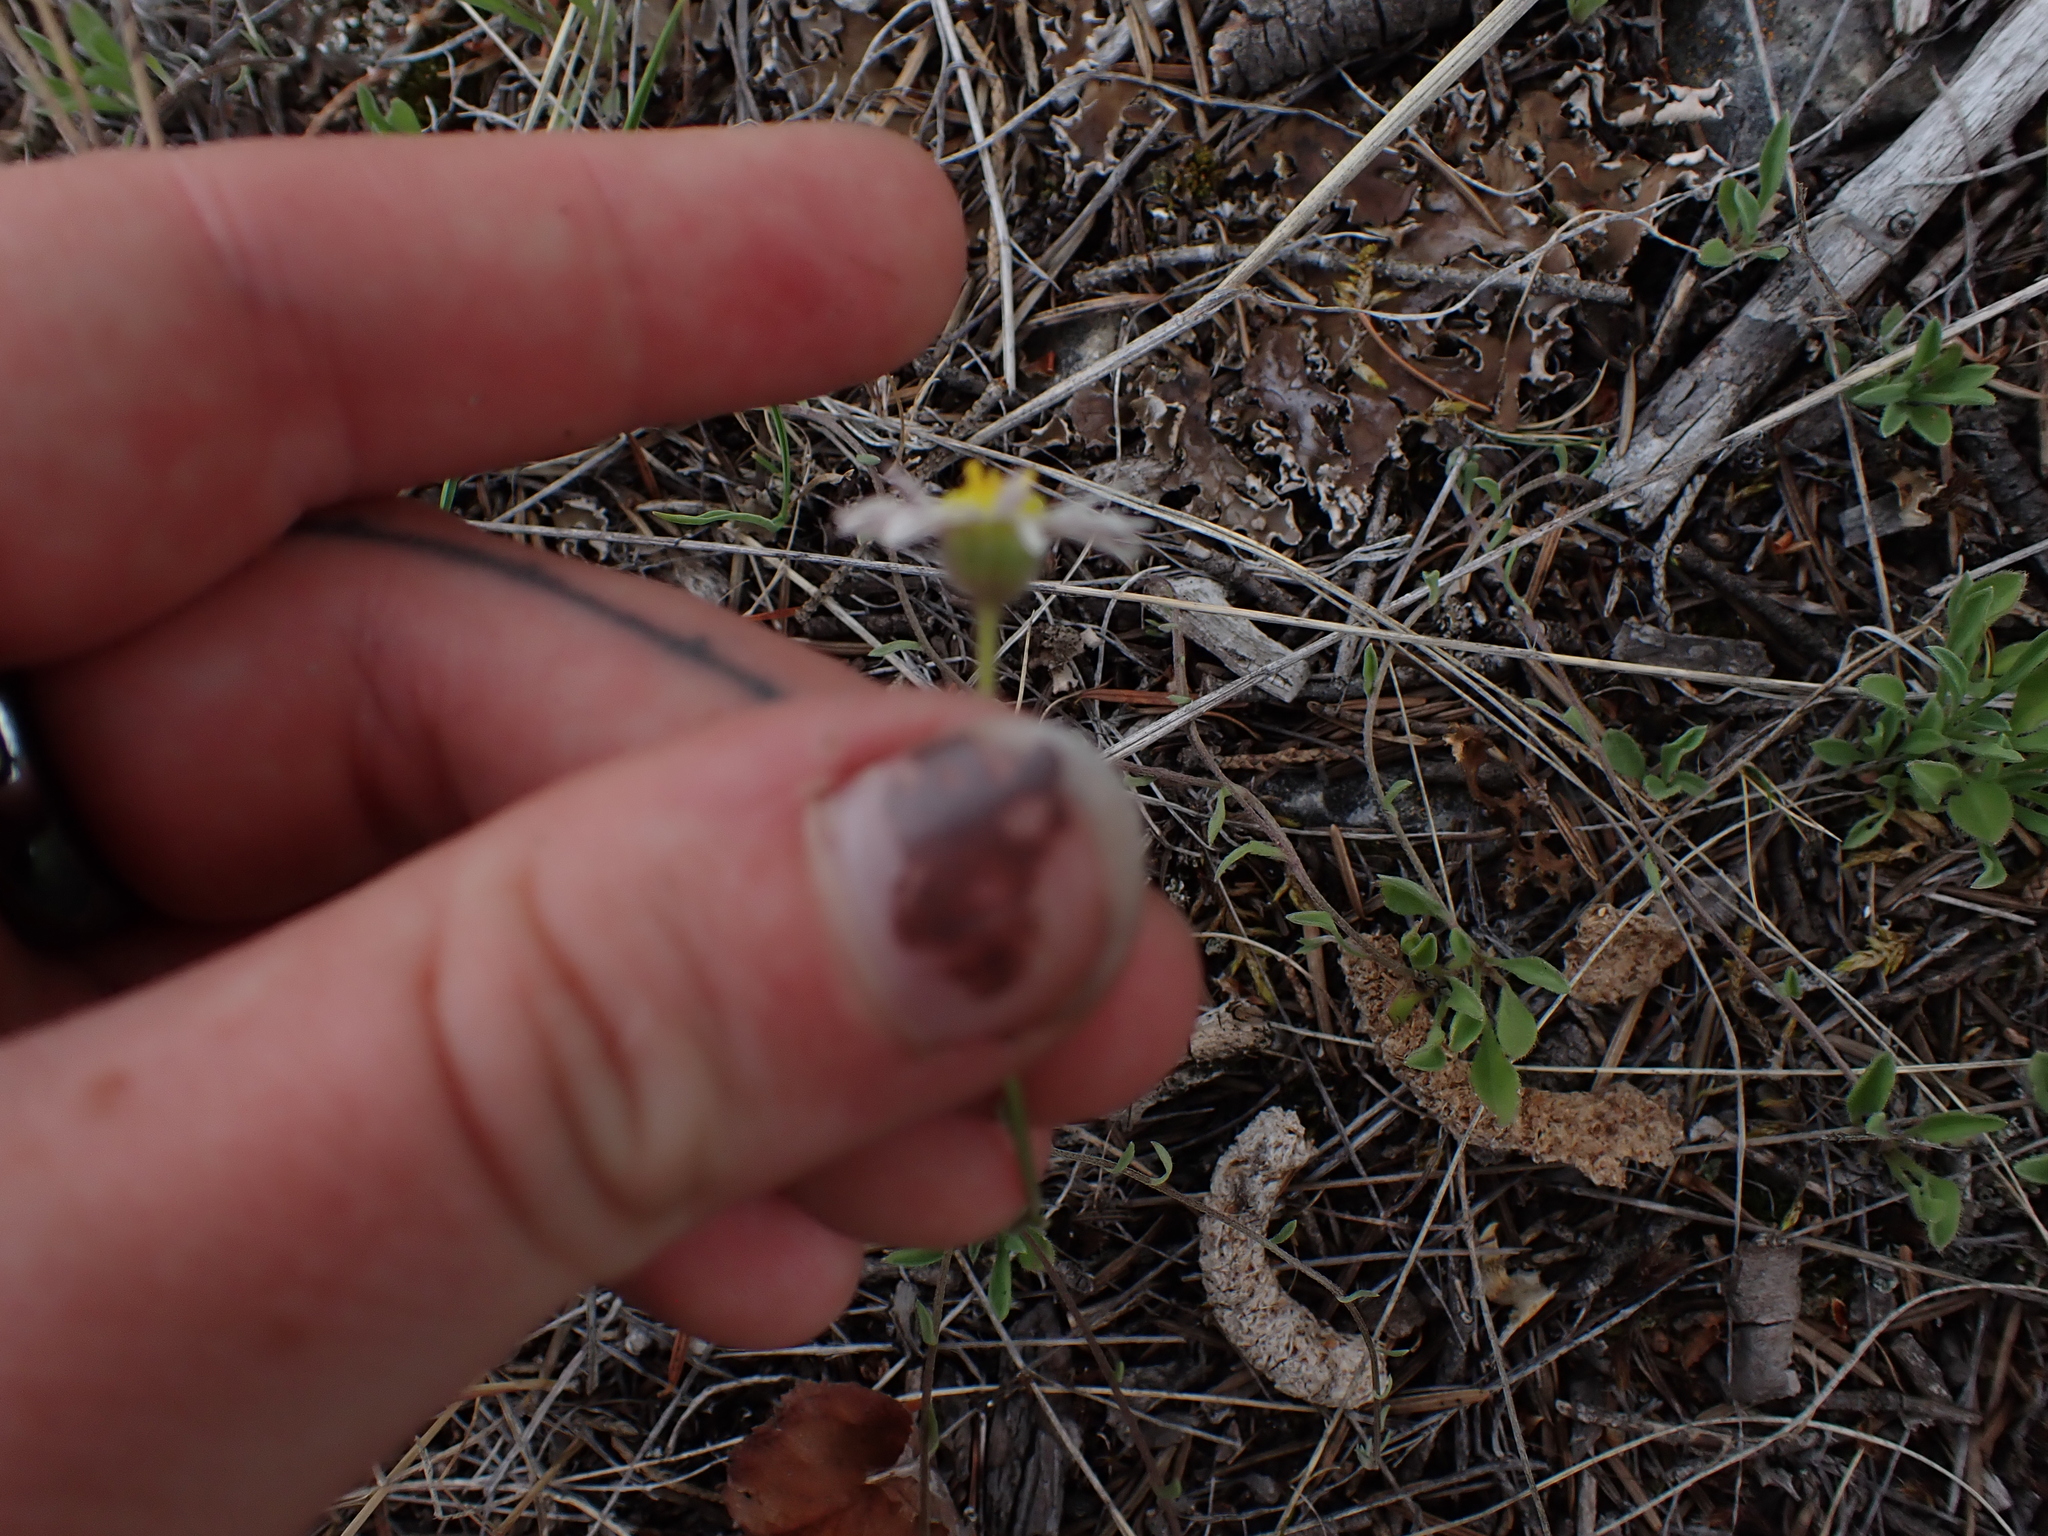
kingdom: Plantae
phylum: Tracheophyta
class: Magnoliopsida
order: Asterales
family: Asteraceae
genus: Erigeron
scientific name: Erigeron flagellaris
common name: Running fleabane
